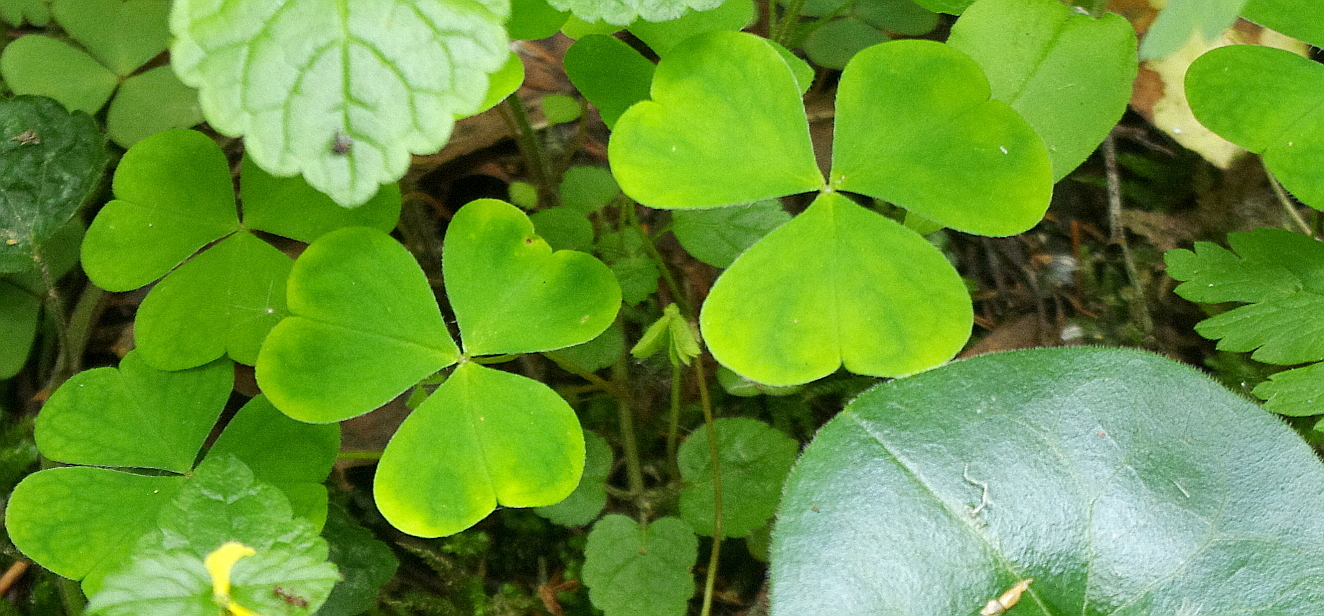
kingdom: Plantae
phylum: Tracheophyta
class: Magnoliopsida
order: Oxalidales
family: Oxalidaceae
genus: Oxalis
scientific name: Oxalis acetosella
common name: Wood-sorrel
